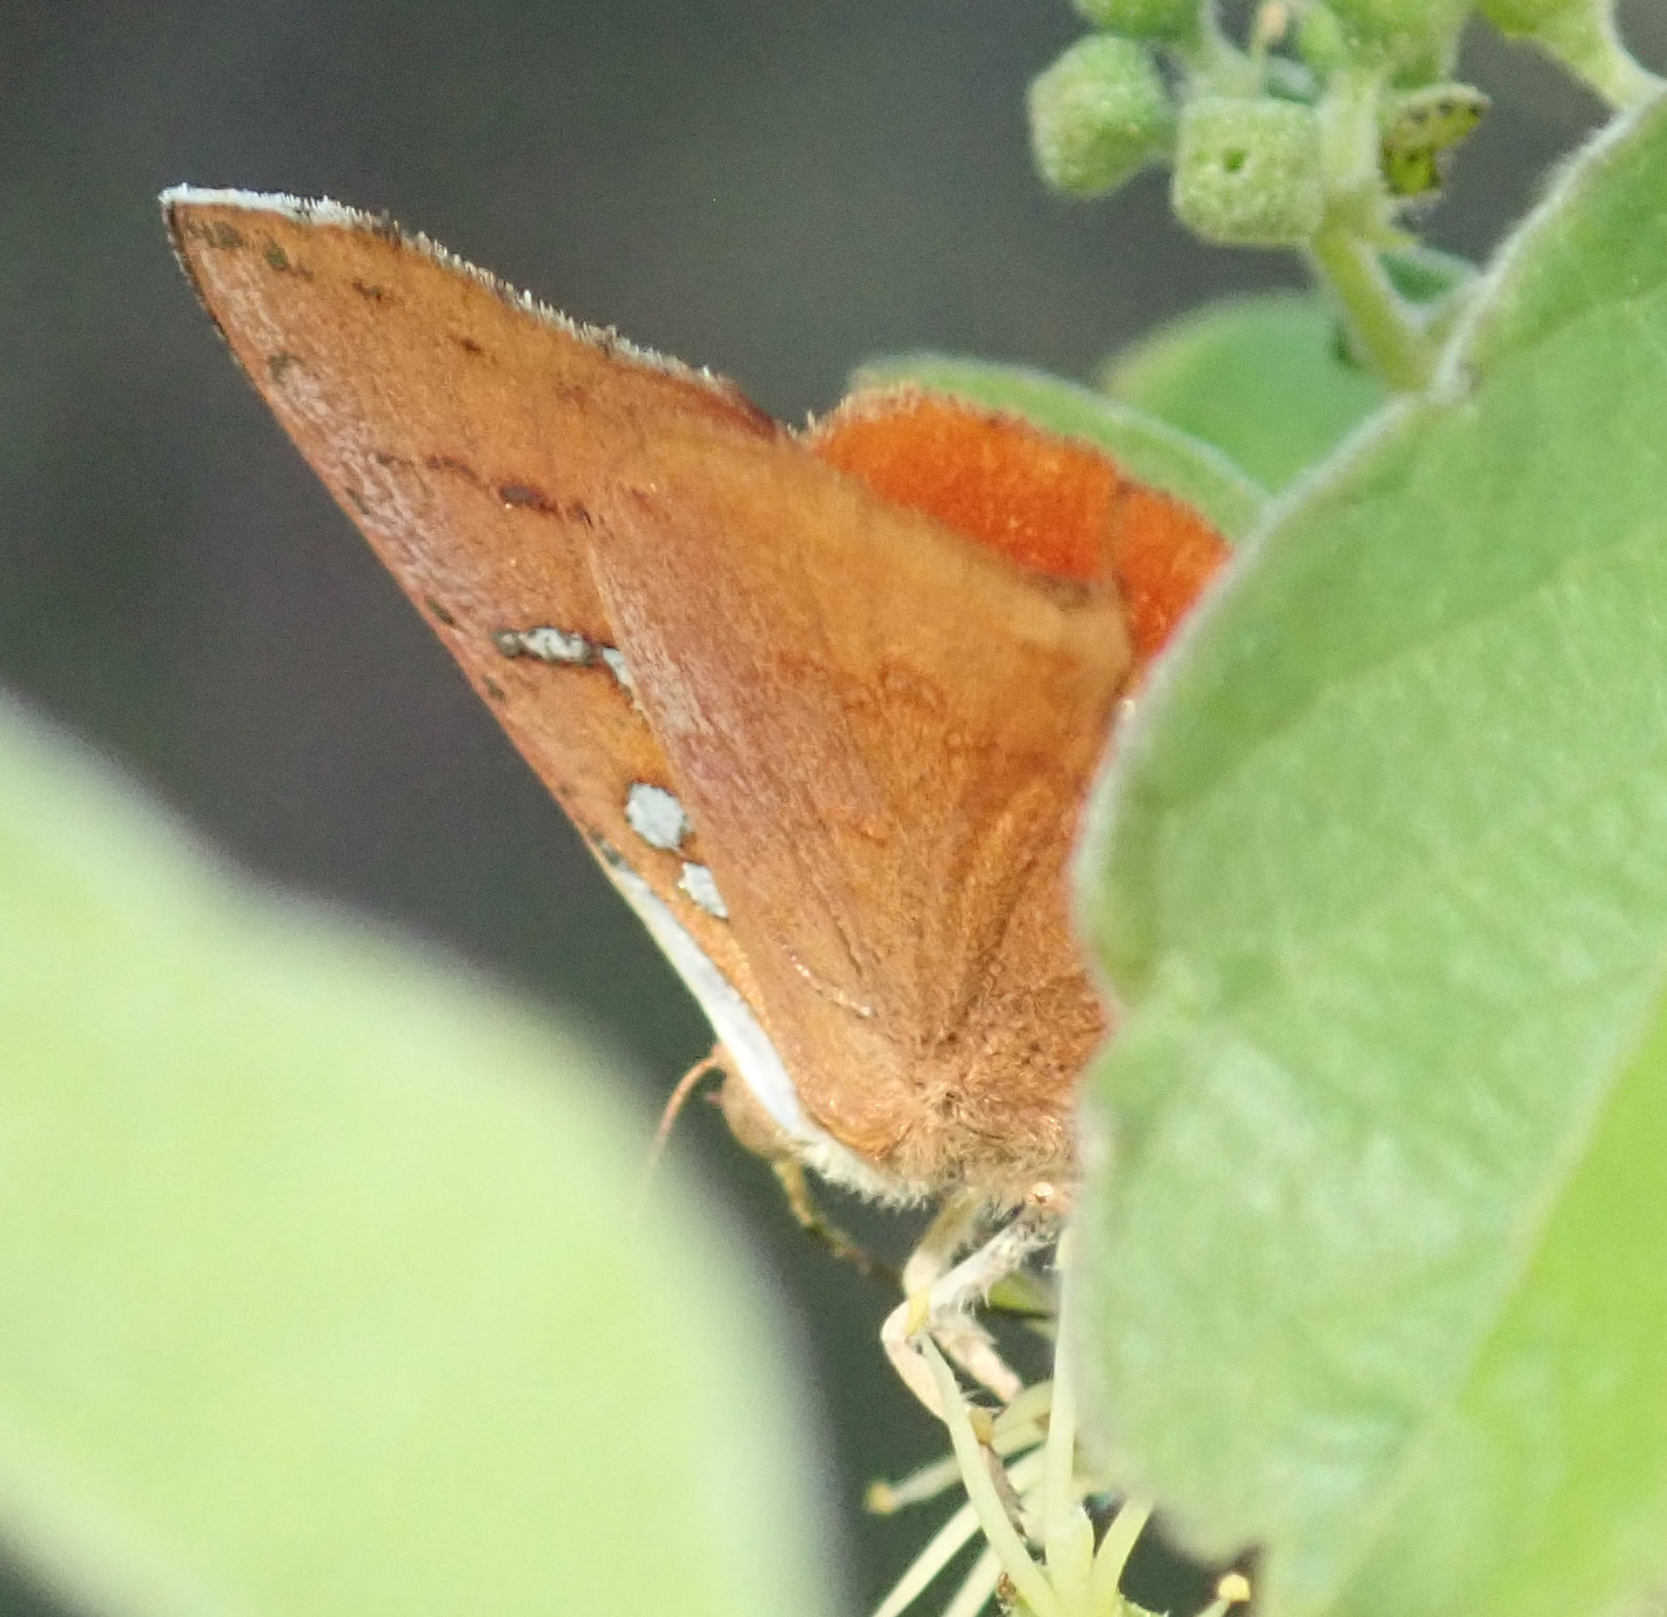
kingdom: Animalia
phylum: Arthropoda
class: Insecta
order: Lepidoptera
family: Lycaenidae
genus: Axiocerses
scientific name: Axiocerses amanga
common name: Bush scarlet
